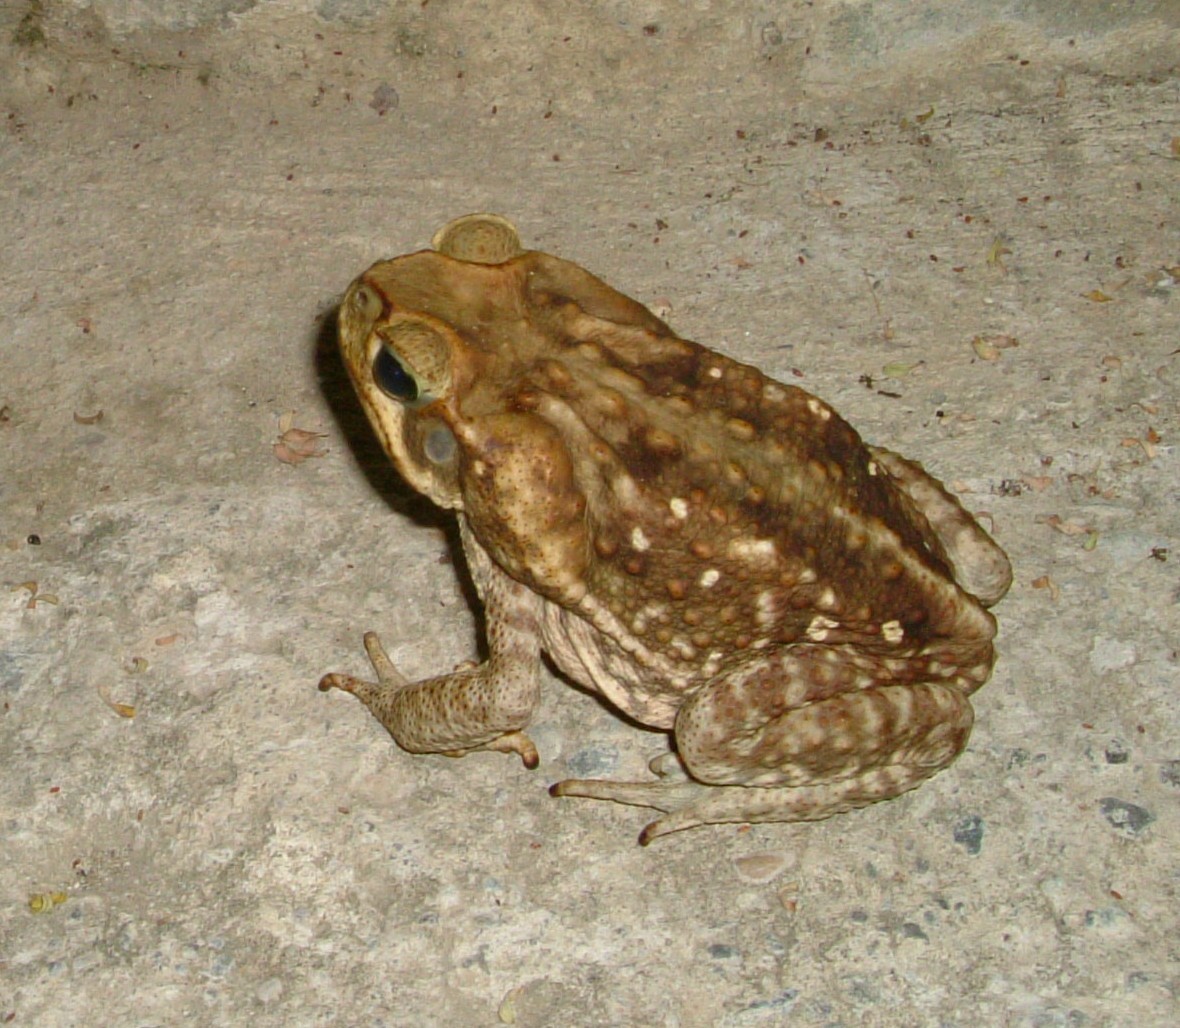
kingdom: Animalia
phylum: Chordata
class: Amphibia
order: Anura
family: Bufonidae
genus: Rhinella
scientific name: Rhinella horribilis
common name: Mesoamerican cane toad
